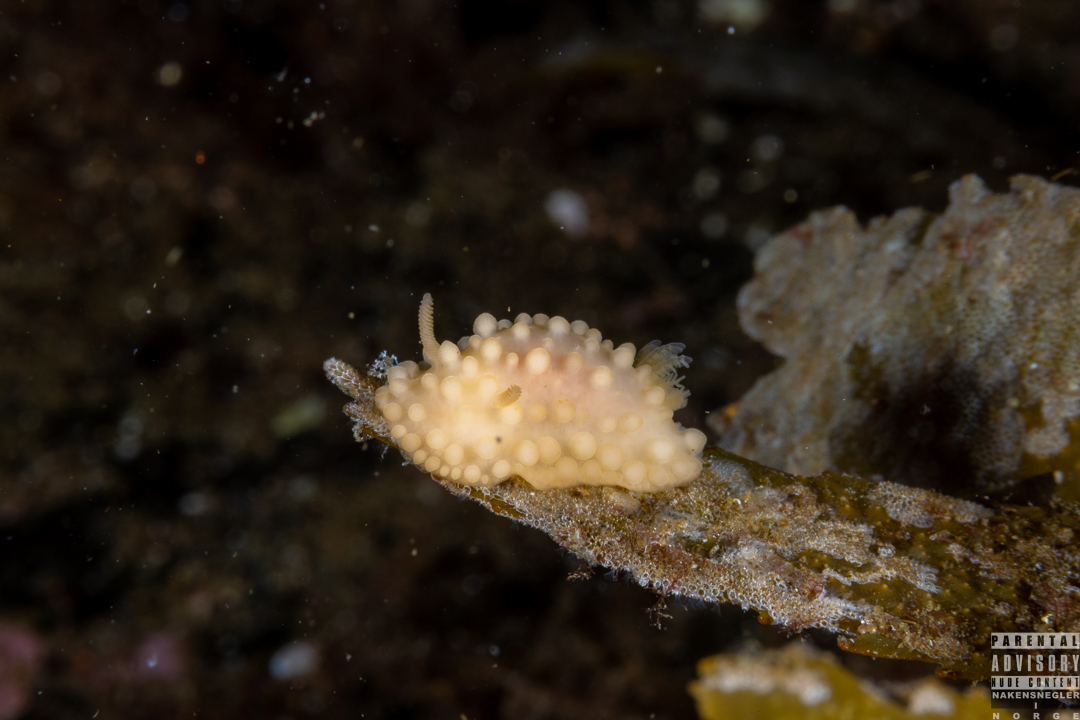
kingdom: Animalia
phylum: Mollusca
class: Gastropoda
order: Nudibranchia
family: Onchidorididae
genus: Adalaria
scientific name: Adalaria loveni
